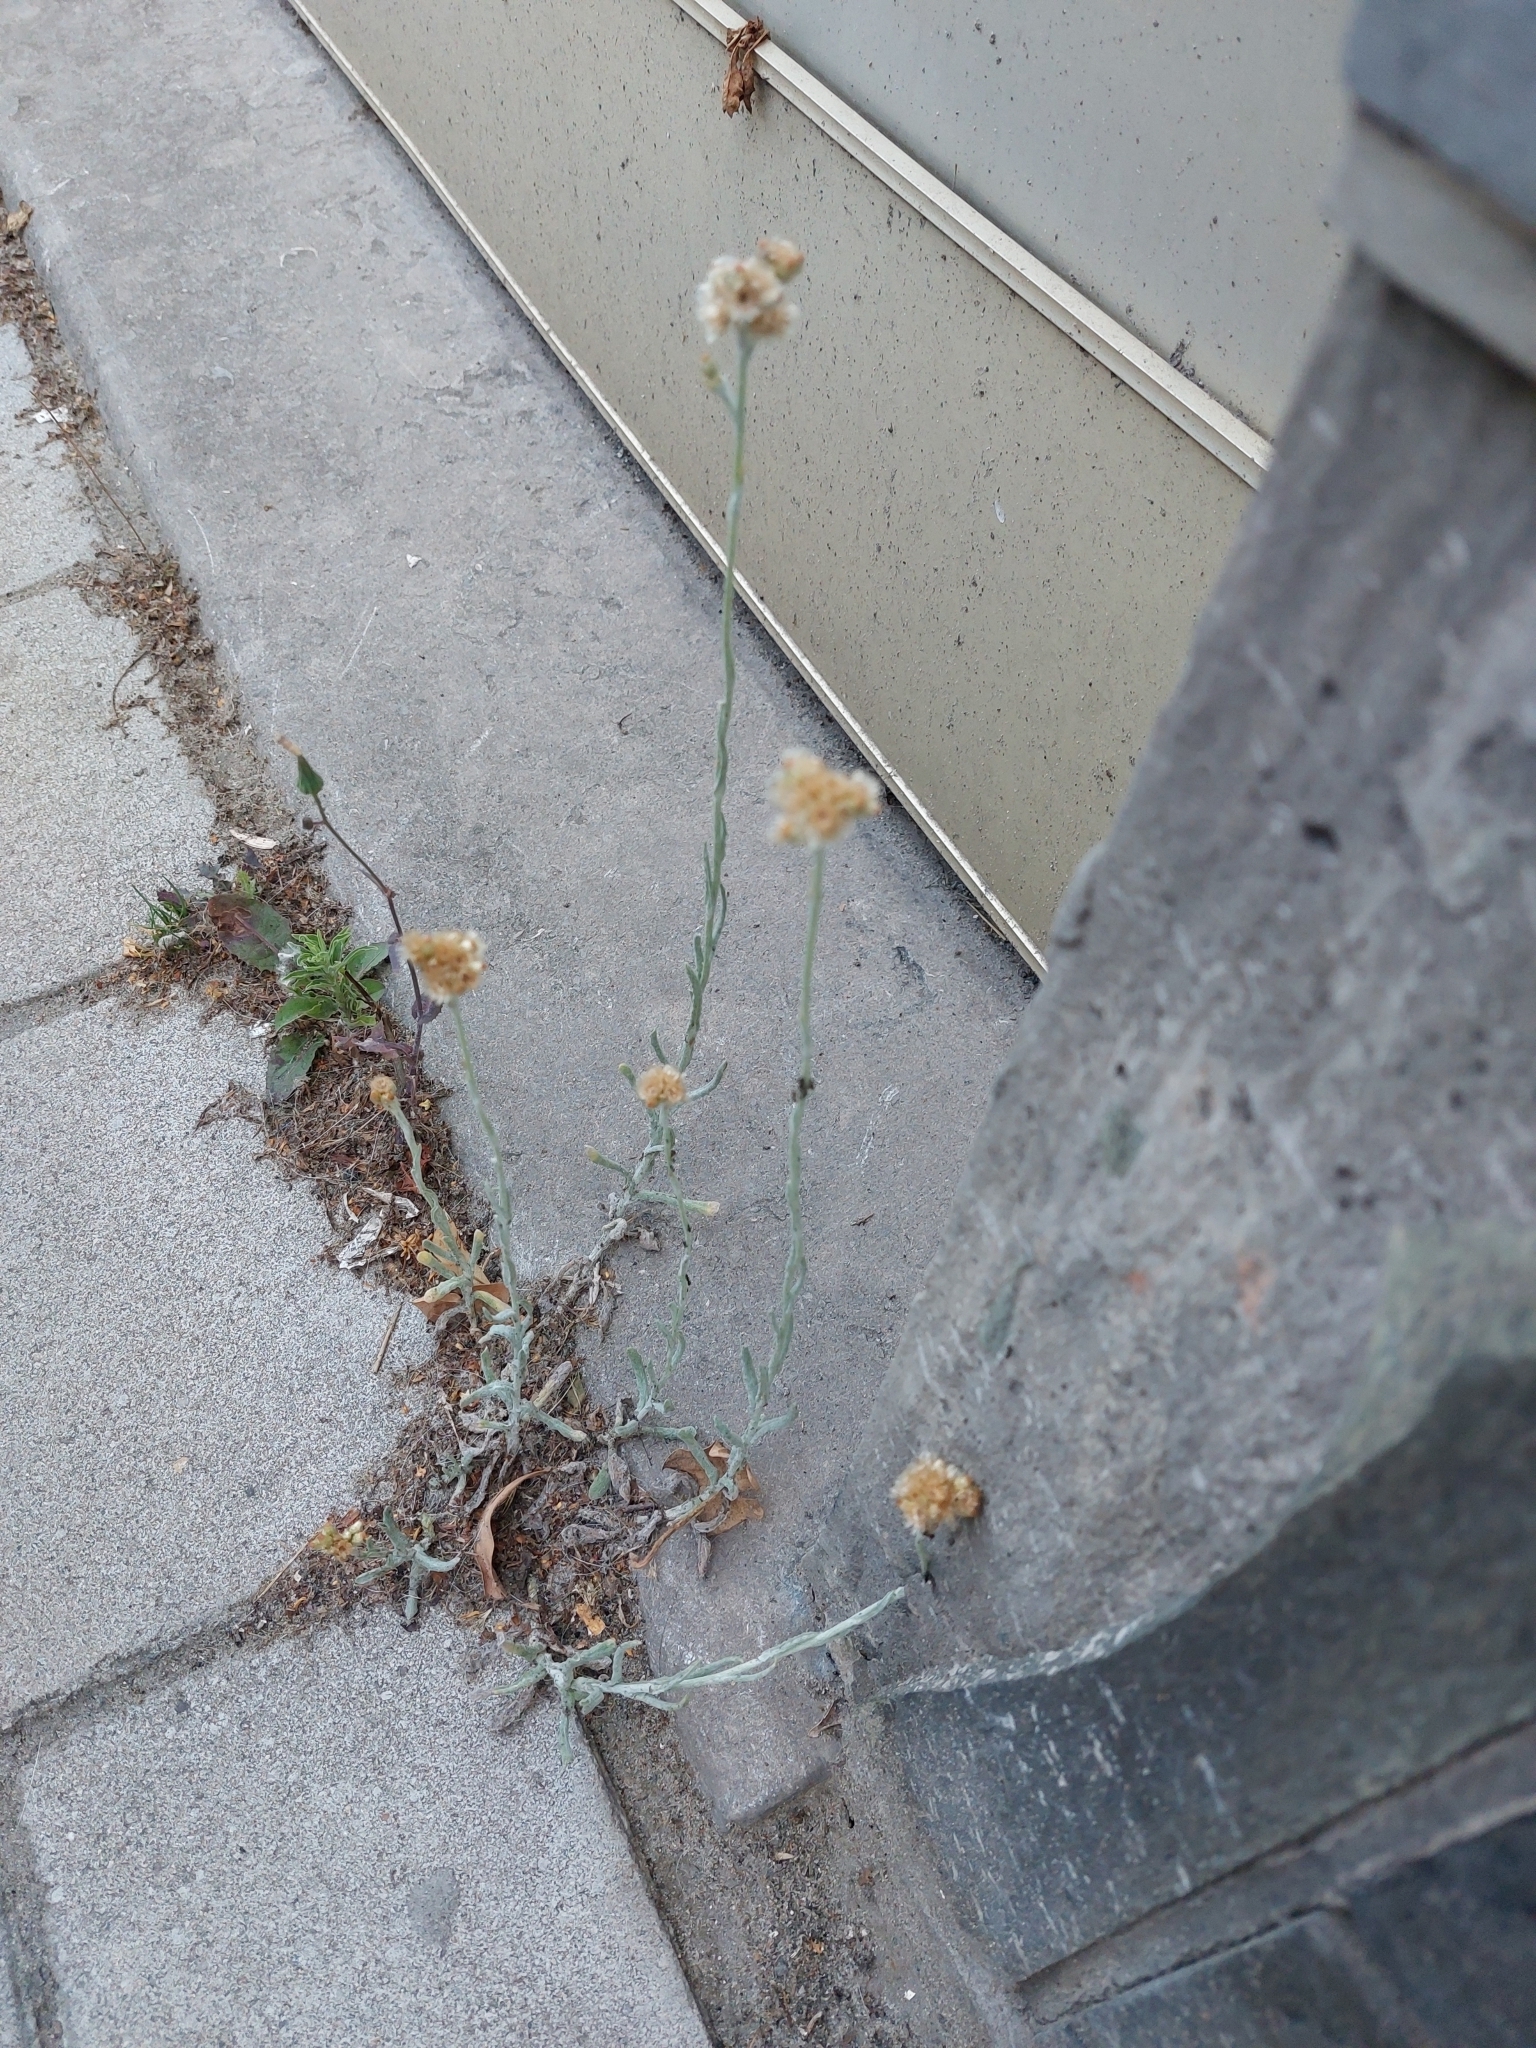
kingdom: Plantae
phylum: Tracheophyta
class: Magnoliopsida
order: Asterales
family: Asteraceae
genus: Helichrysum
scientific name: Helichrysum luteoalbum
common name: Daisy
